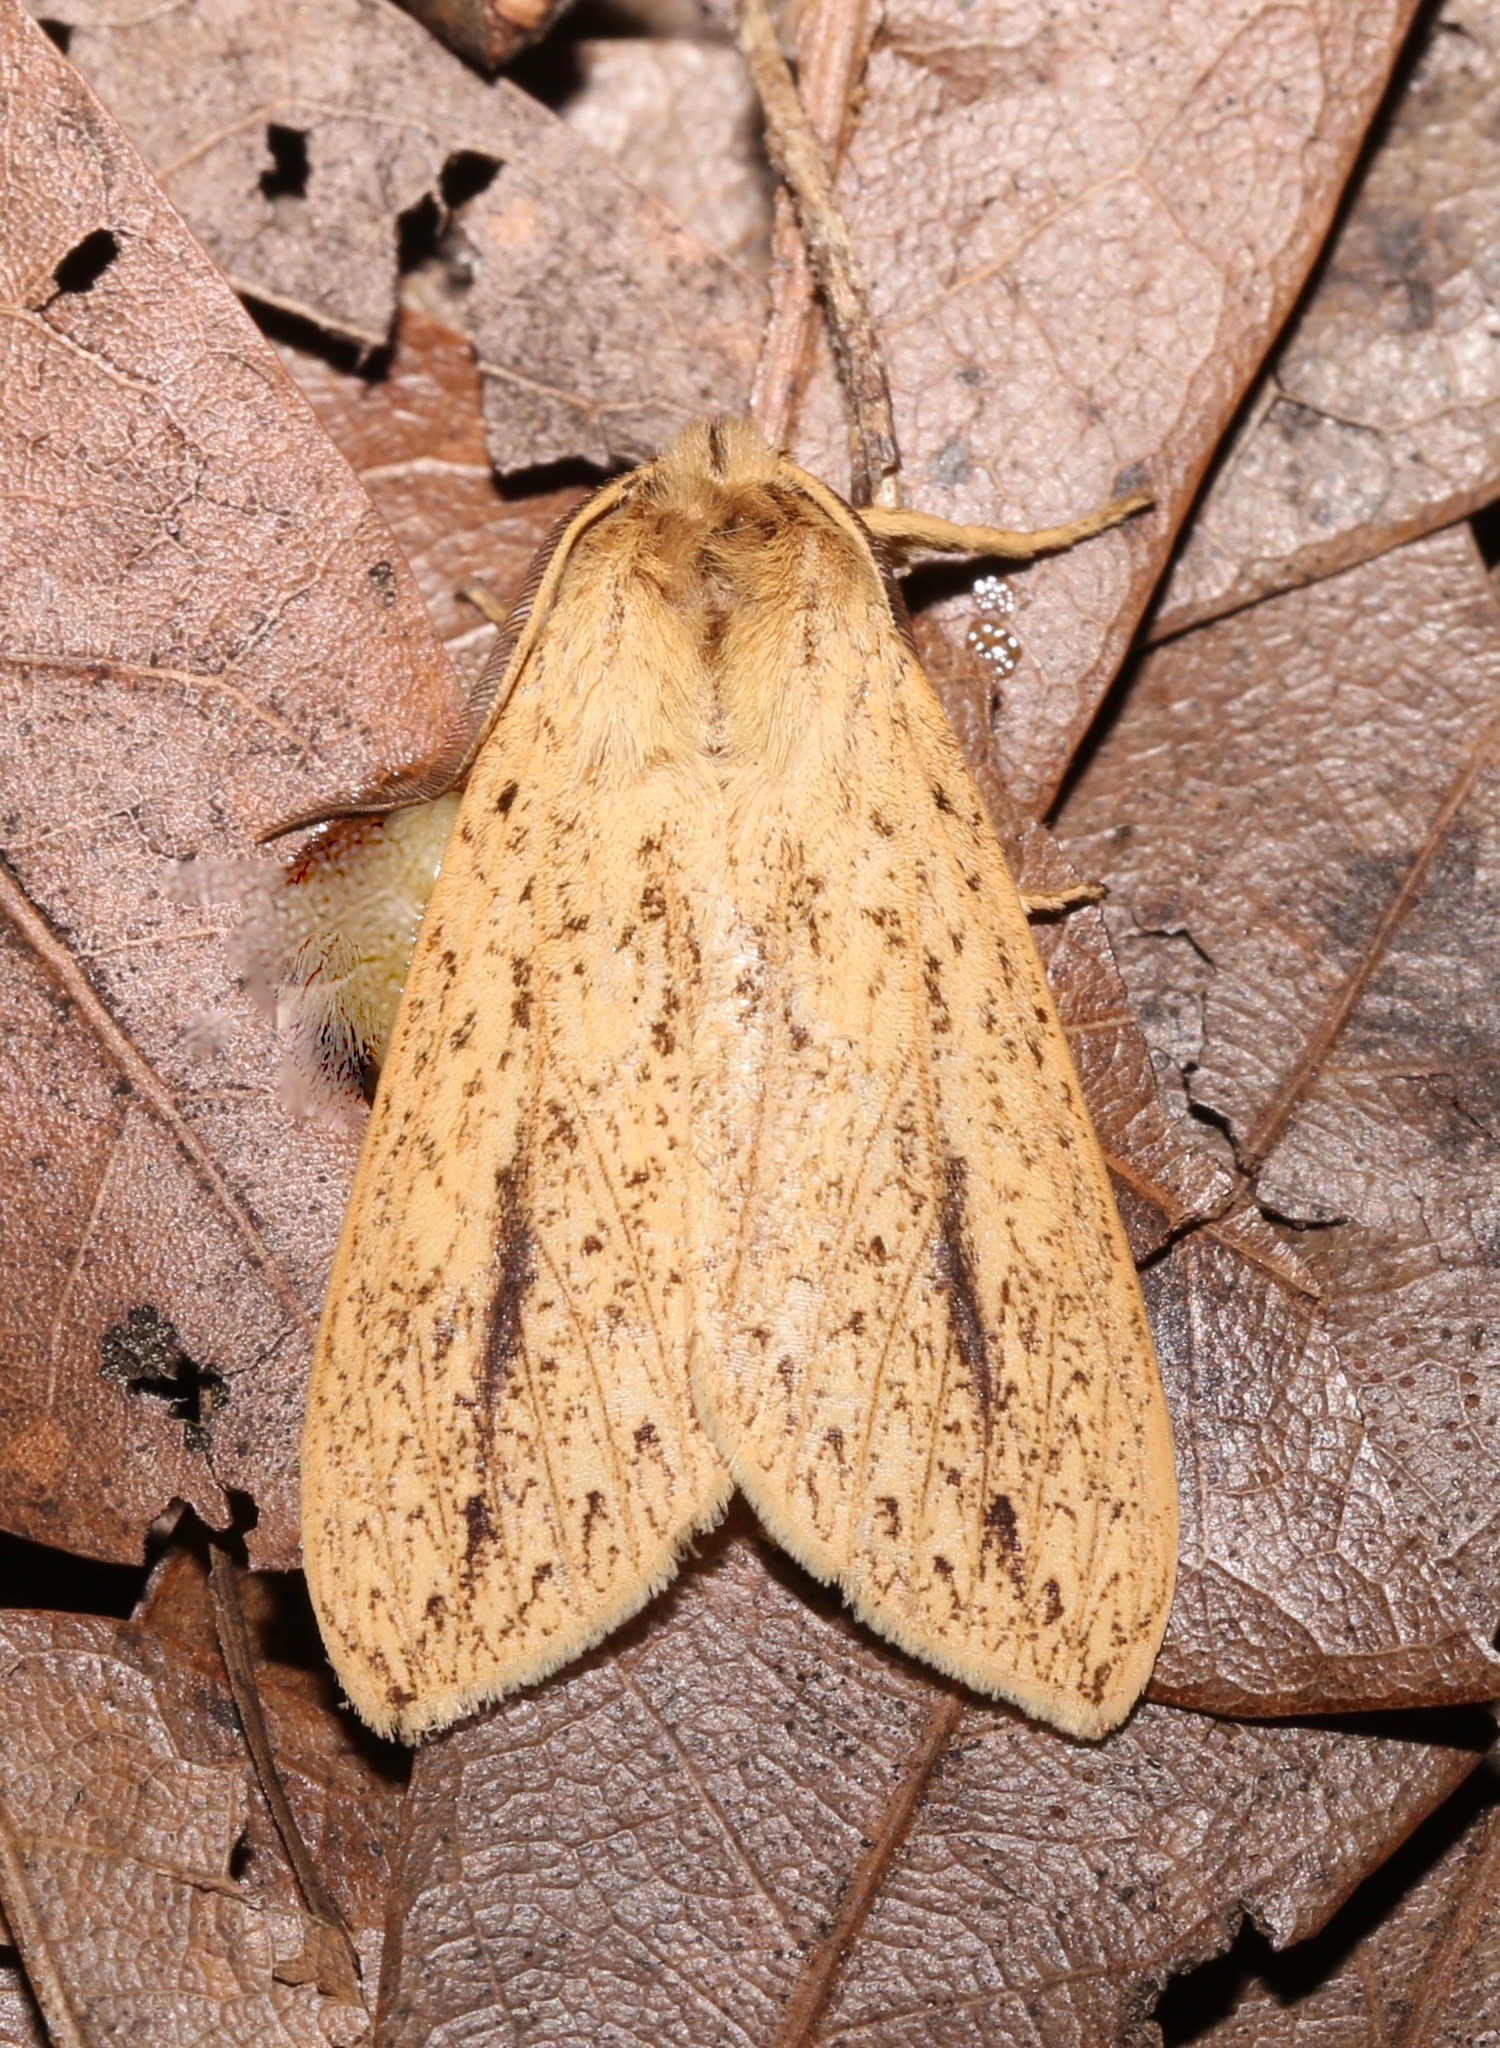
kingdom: Animalia
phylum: Arthropoda
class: Insecta
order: Lepidoptera
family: Erebidae
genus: Leucanopsis
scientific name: Leucanopsis longa
